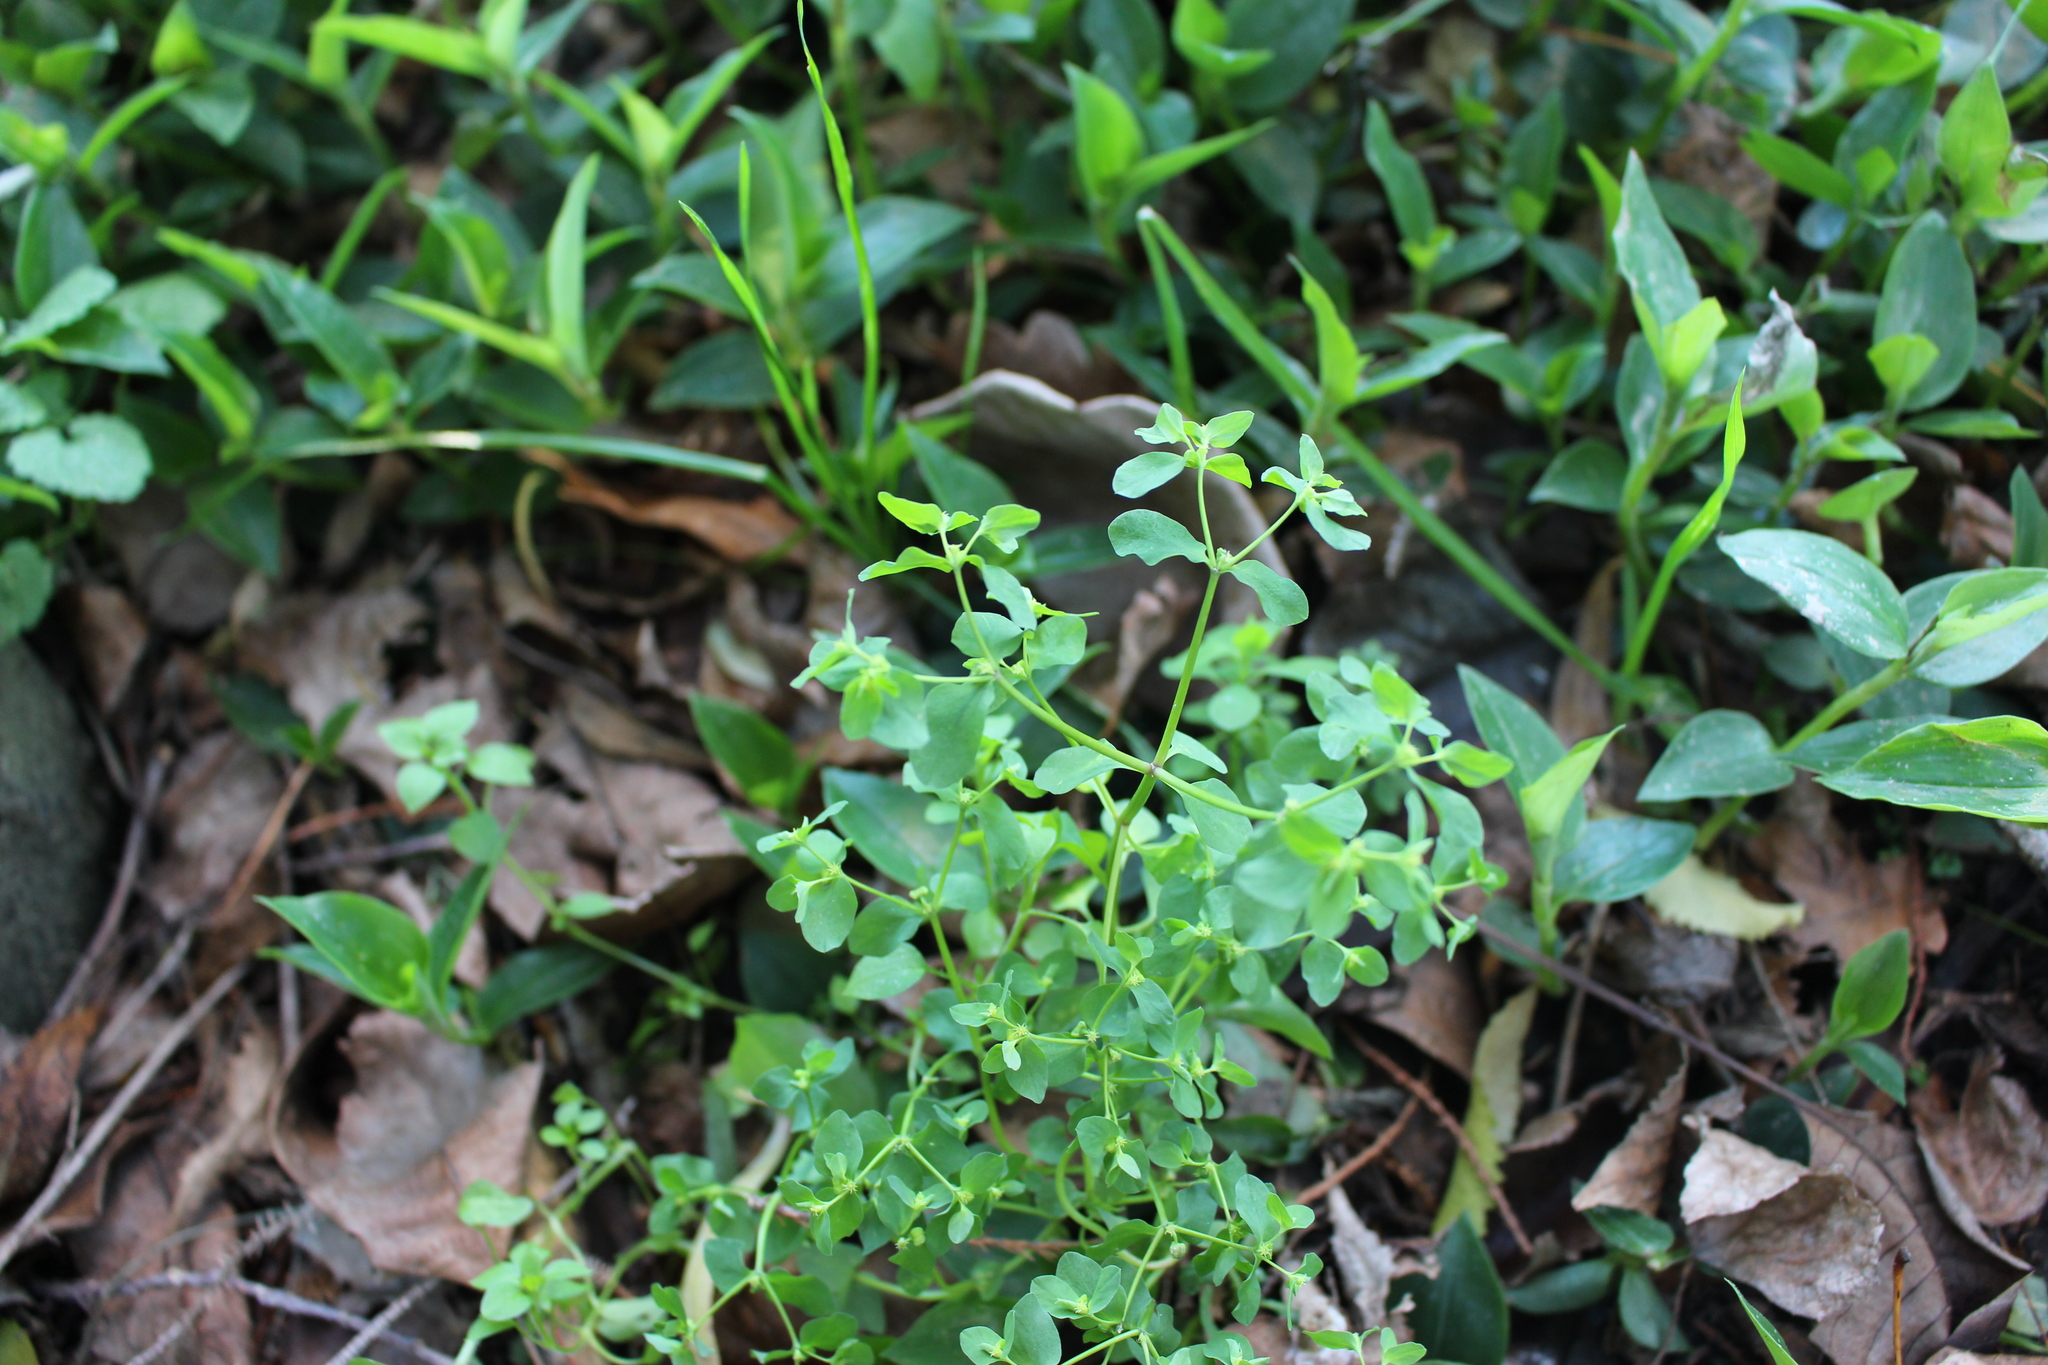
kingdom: Plantae
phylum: Tracheophyta
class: Magnoliopsida
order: Malpighiales
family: Euphorbiaceae
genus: Euphorbia
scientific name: Euphorbia peplus
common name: Petty spurge
